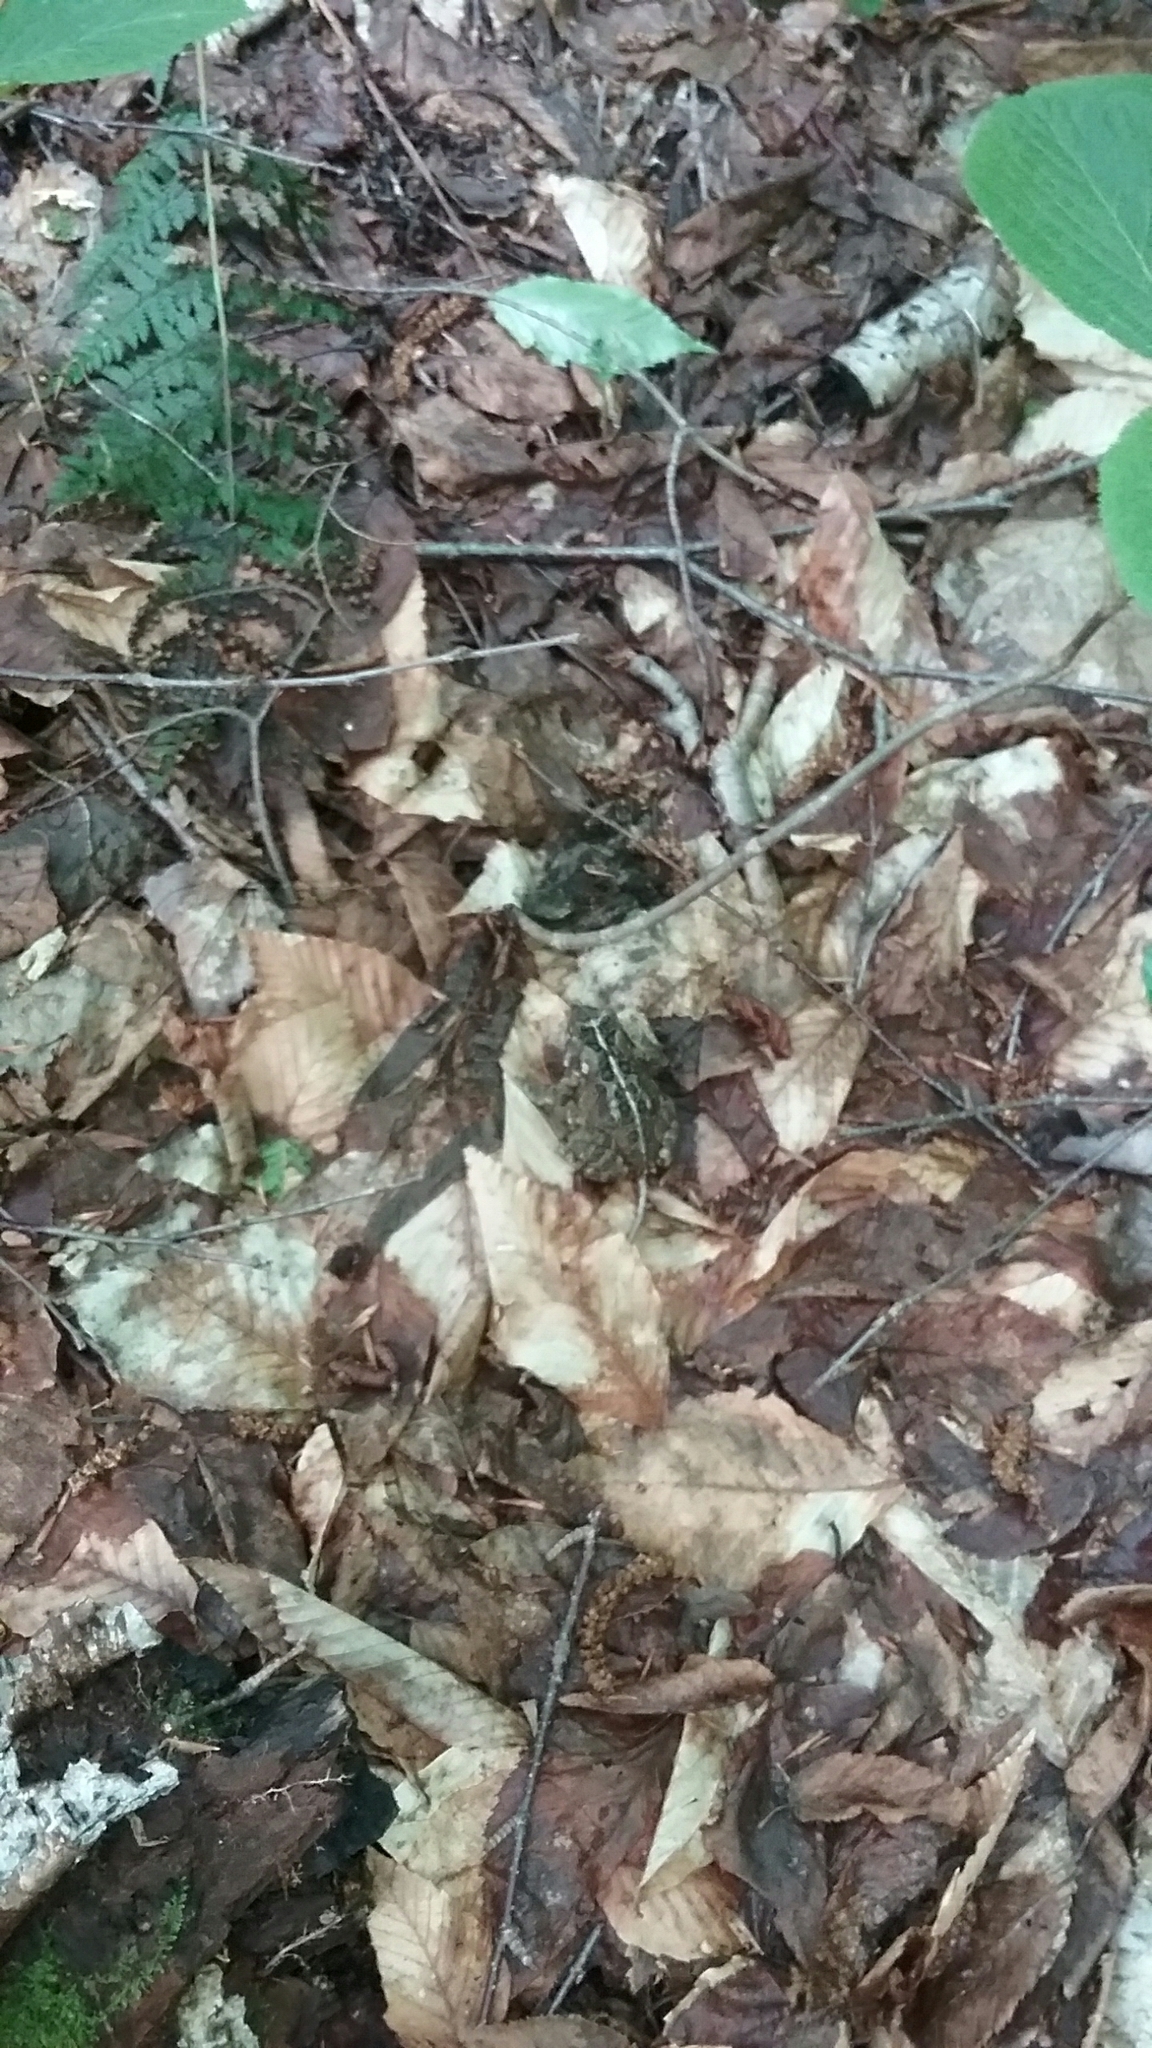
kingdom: Animalia
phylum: Chordata
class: Amphibia
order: Anura
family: Bufonidae
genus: Anaxyrus
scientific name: Anaxyrus americanus
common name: American toad
